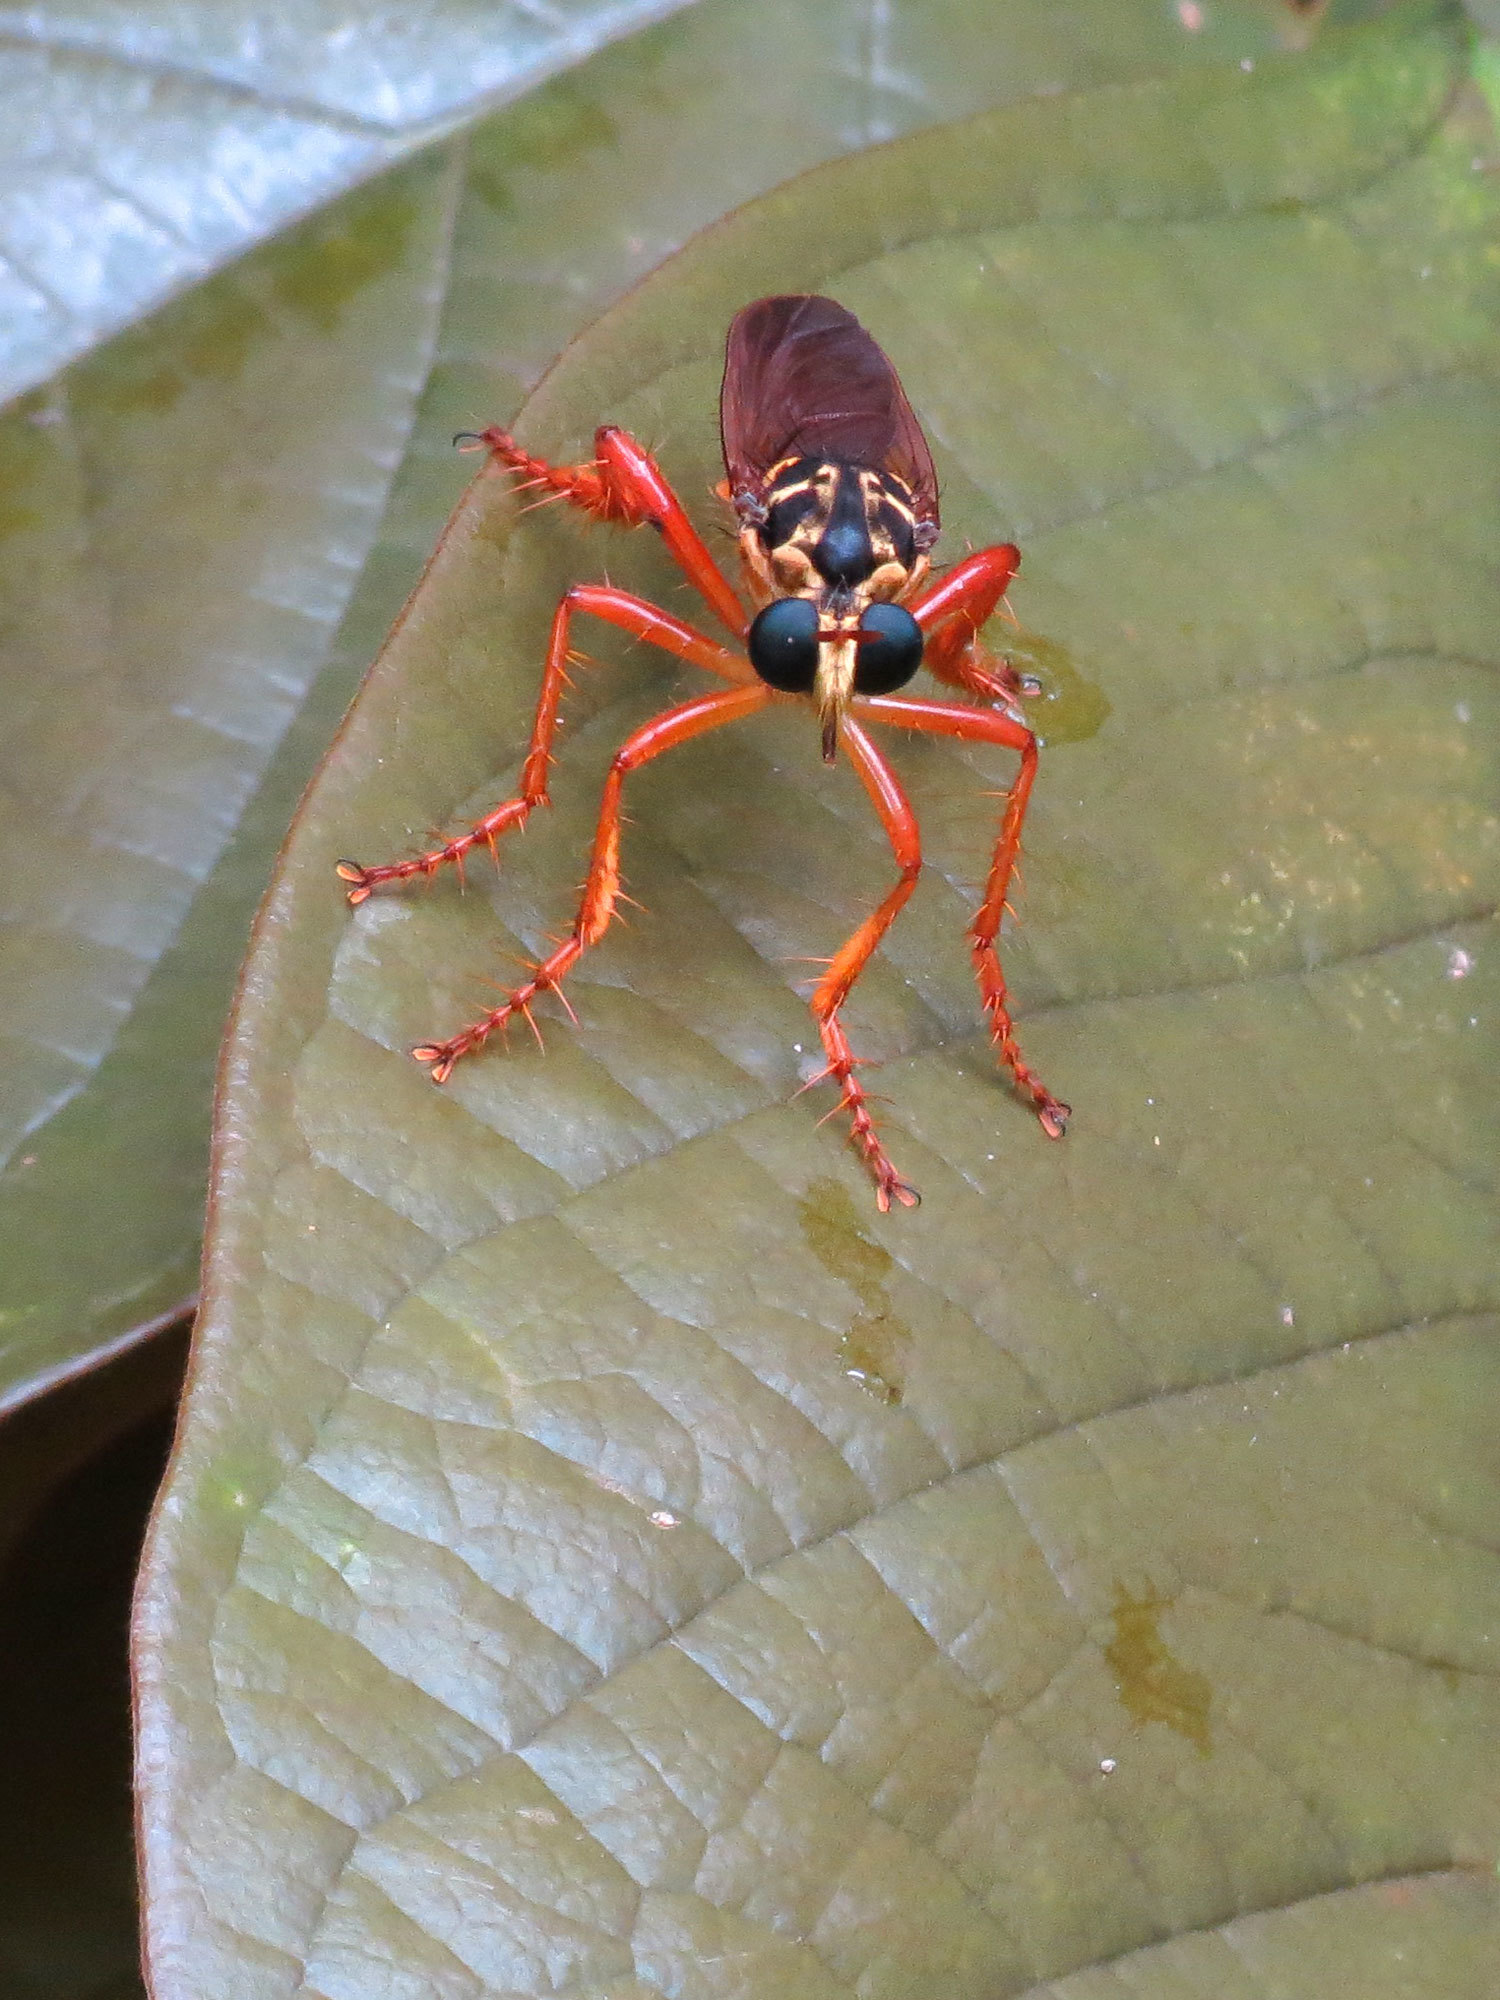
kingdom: Animalia
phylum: Arthropoda
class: Insecta
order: Diptera
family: Asilidae
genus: Smeryngolaphria
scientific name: Smeryngolaphria numitor
